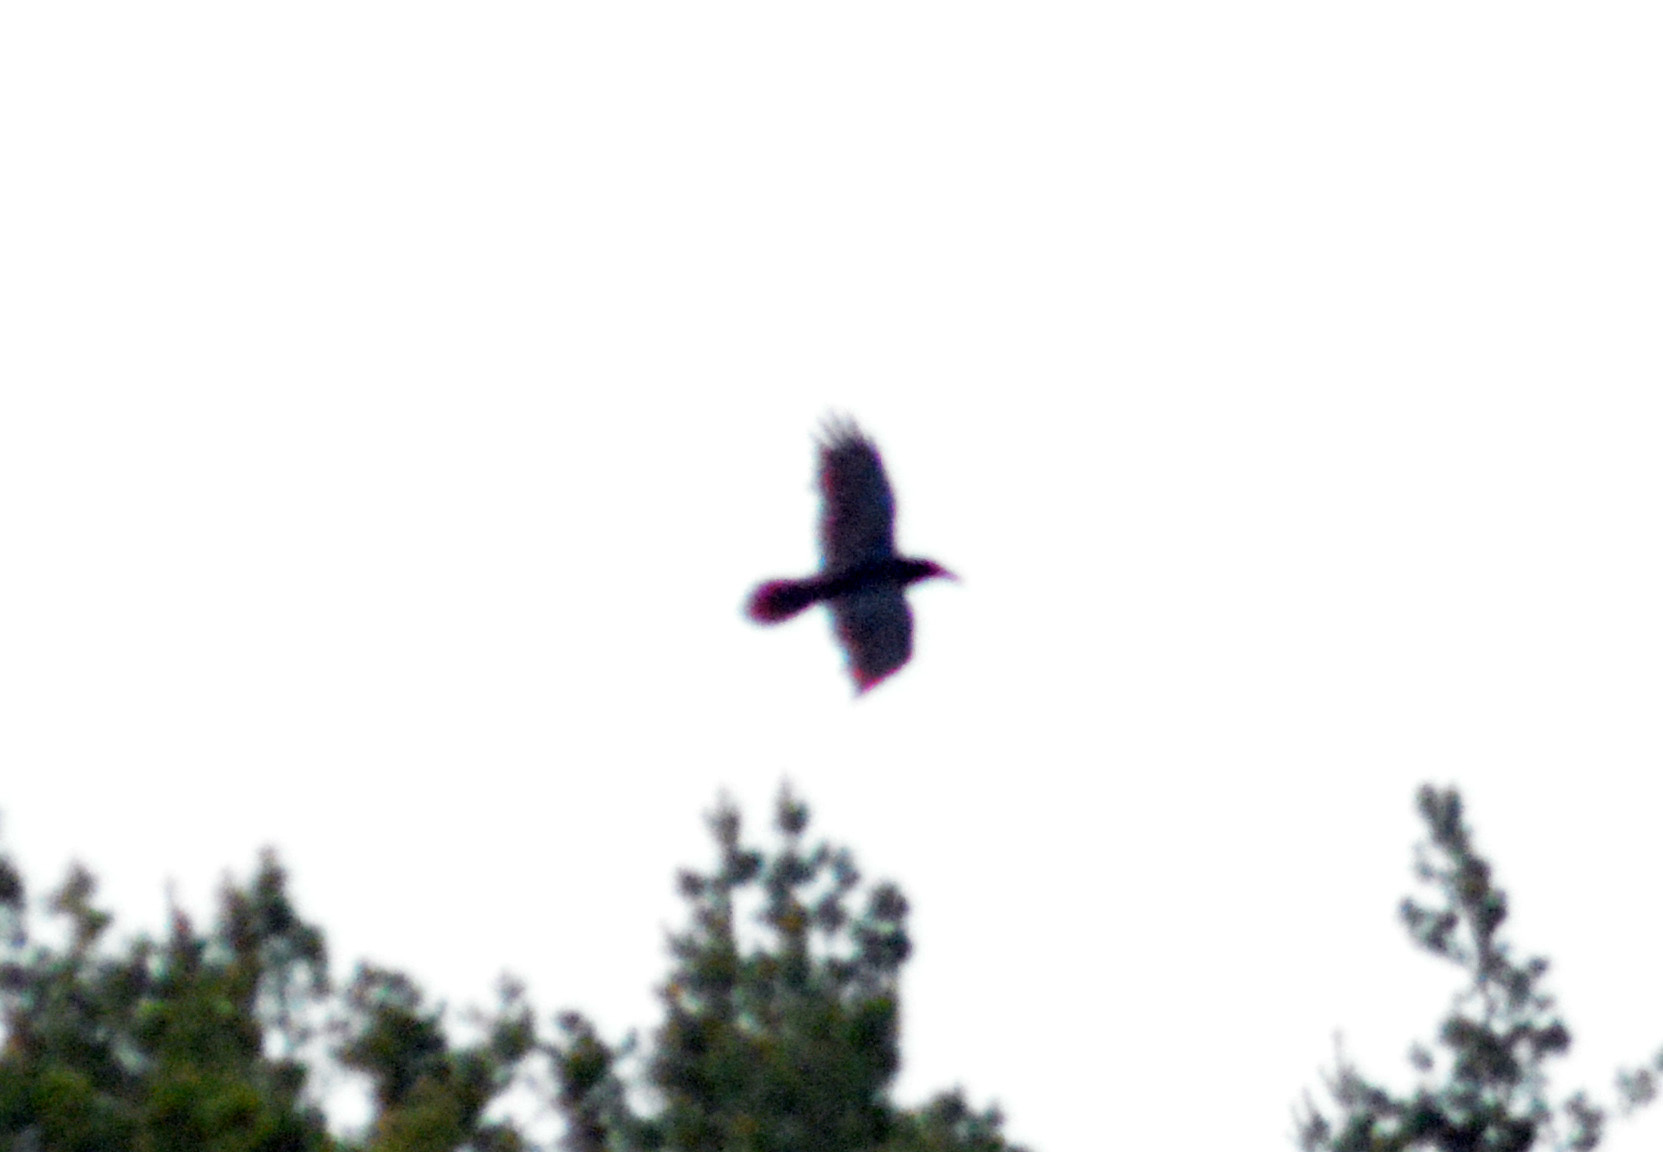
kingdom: Animalia
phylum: Chordata
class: Aves
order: Passeriformes
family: Corvidae
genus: Corvus
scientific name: Corvus corax
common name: Common raven
